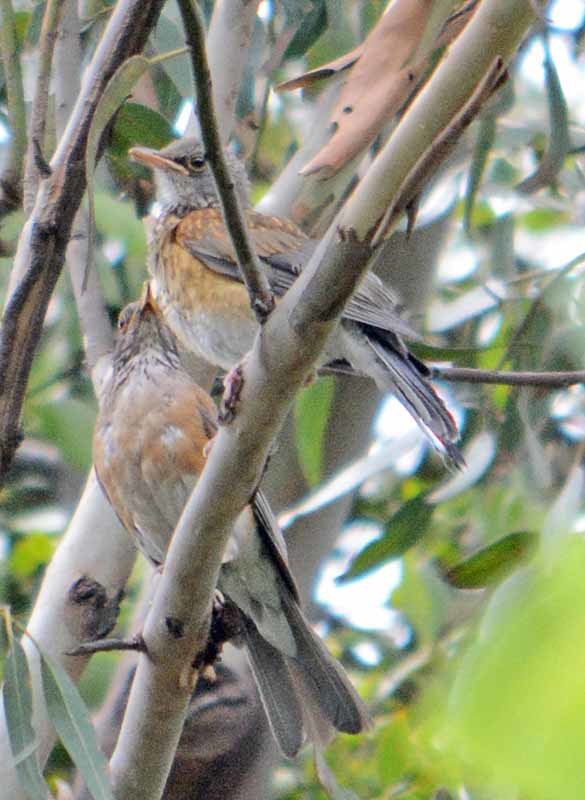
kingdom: Animalia
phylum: Chordata
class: Aves
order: Passeriformes
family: Turdidae
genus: Turdus
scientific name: Turdus rufopalliatus
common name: Rufous-backed robin
